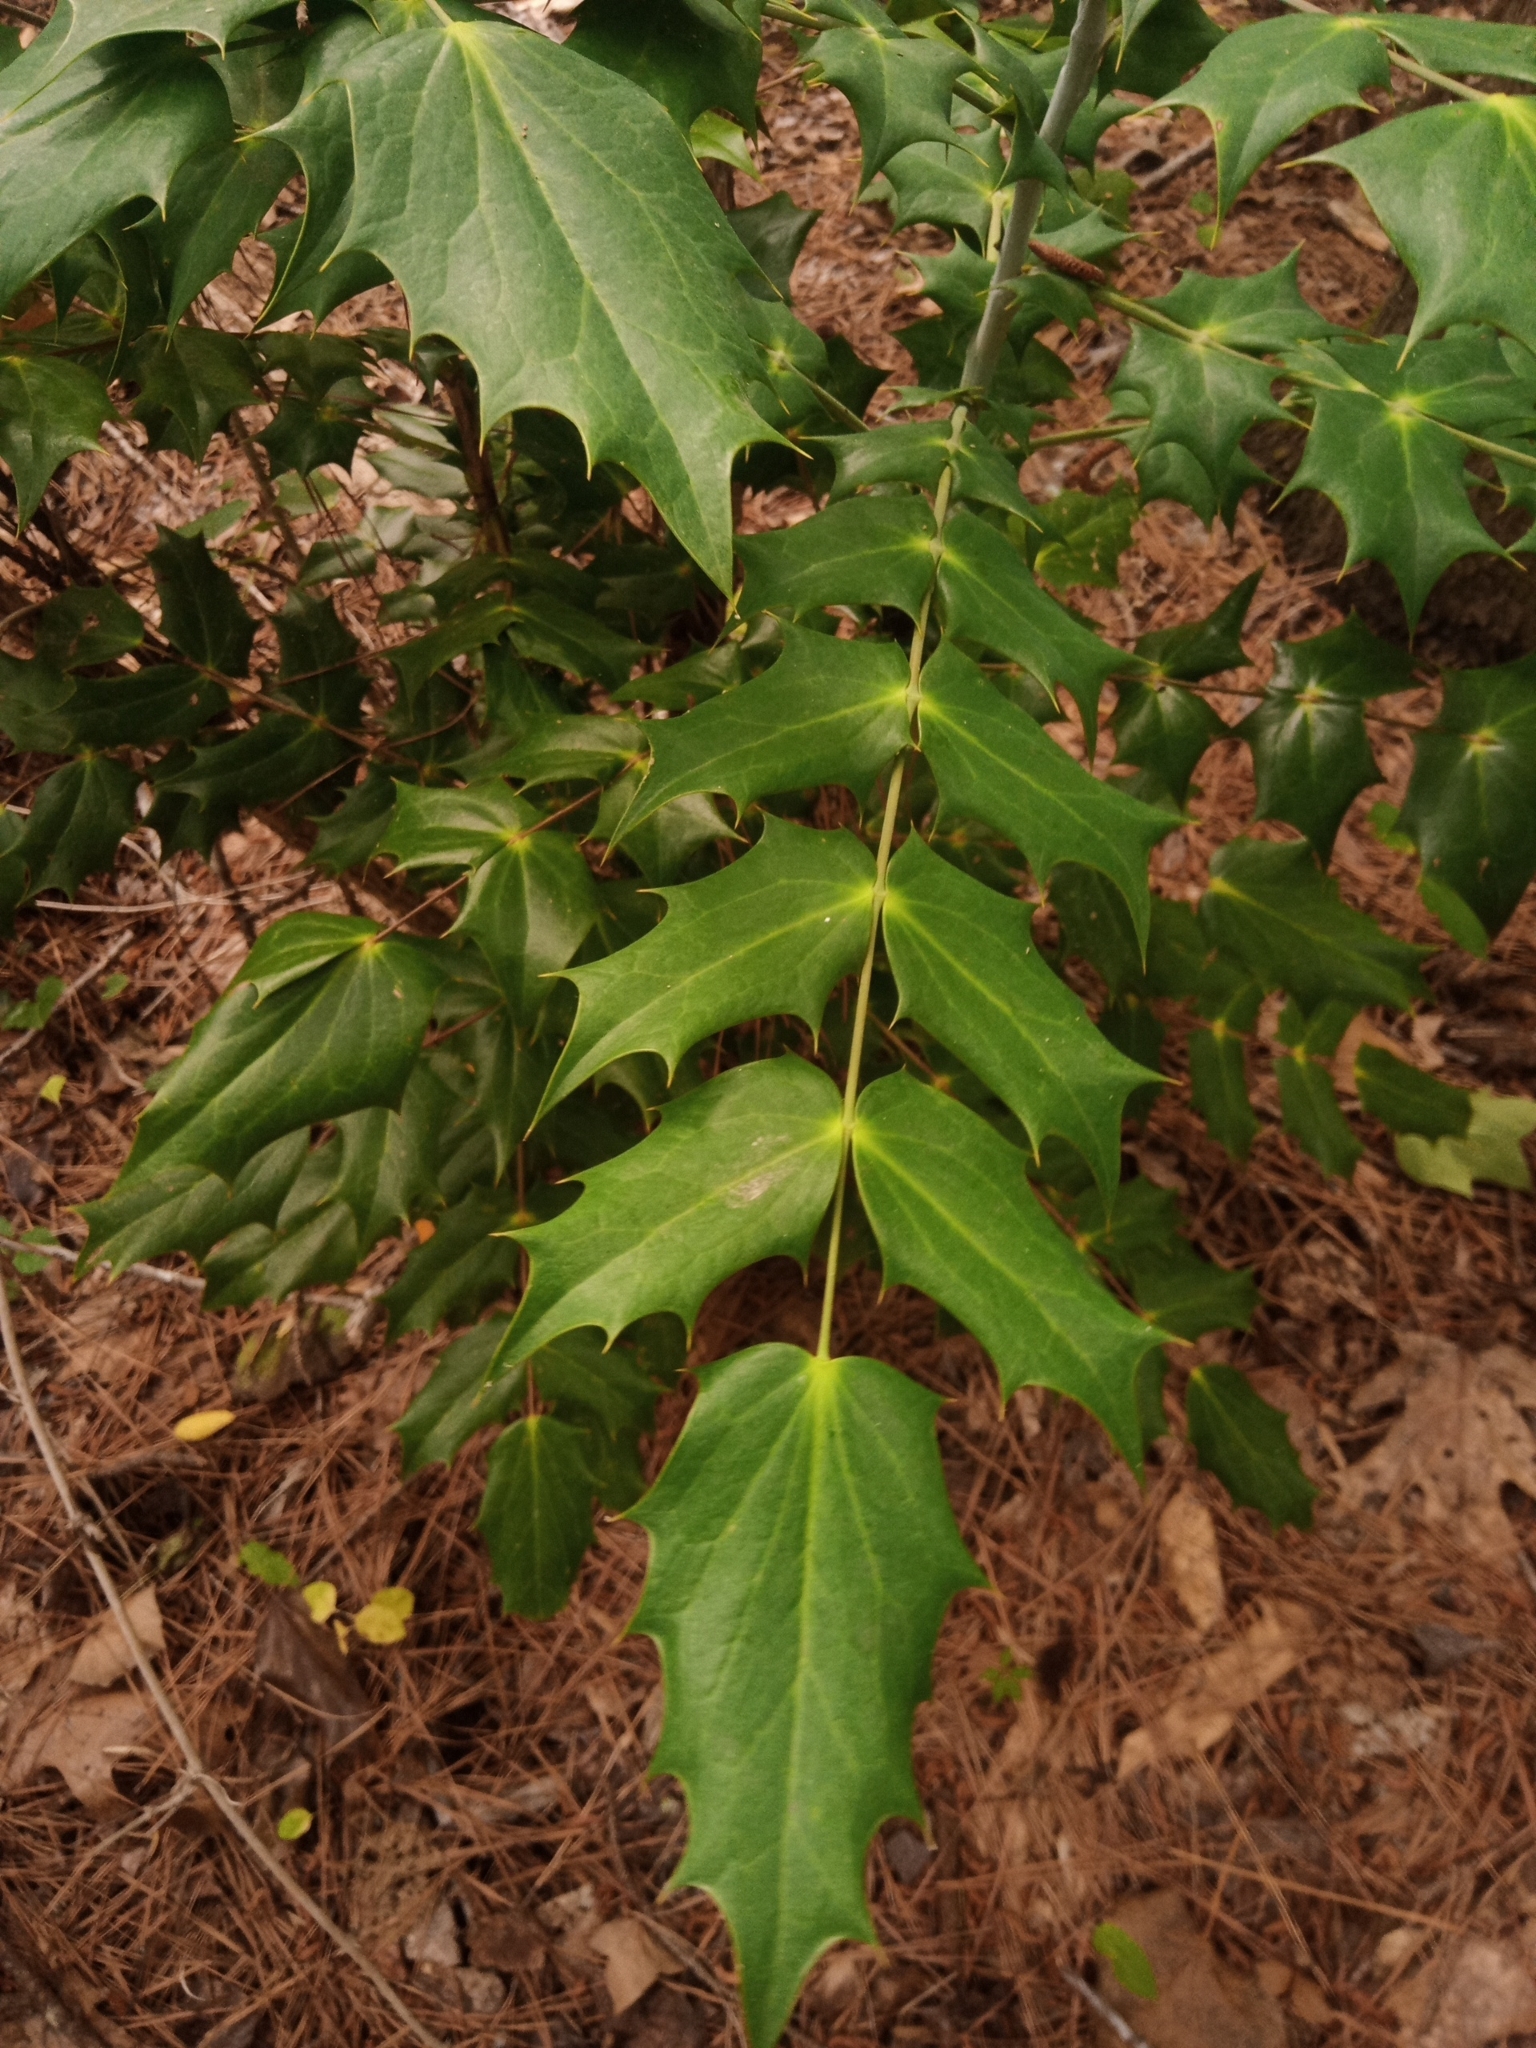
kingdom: Plantae
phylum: Tracheophyta
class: Magnoliopsida
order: Ranunculales
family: Berberidaceae
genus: Mahonia
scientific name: Mahonia bealei
